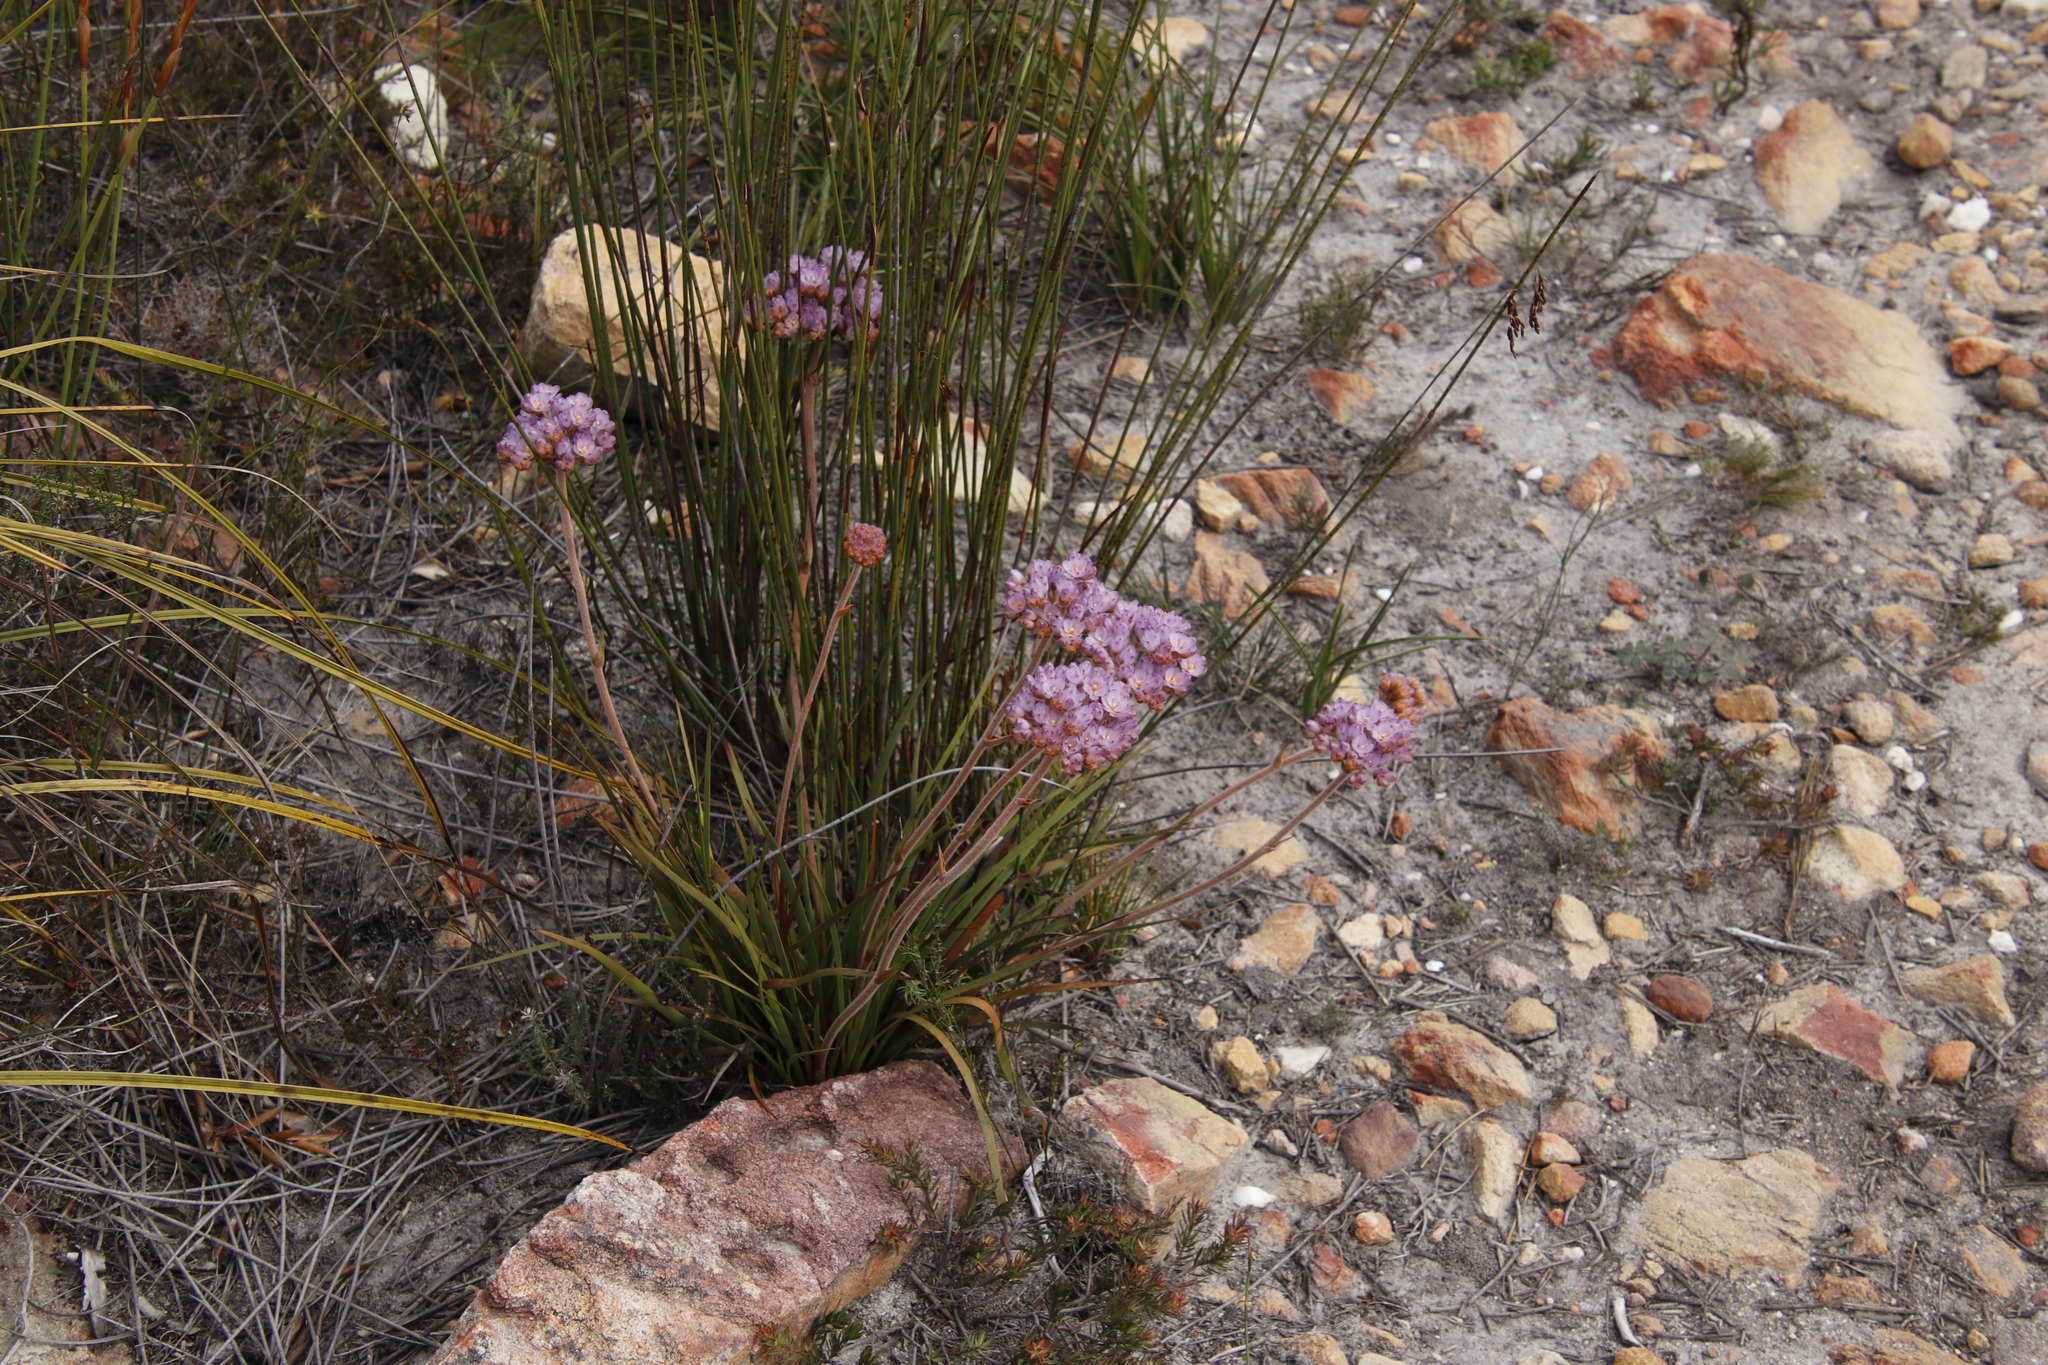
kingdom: Plantae
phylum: Tracheophyta
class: Liliopsida
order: Commelinales
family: Haemodoraceae
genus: Dilatris
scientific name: Dilatris pillansii
